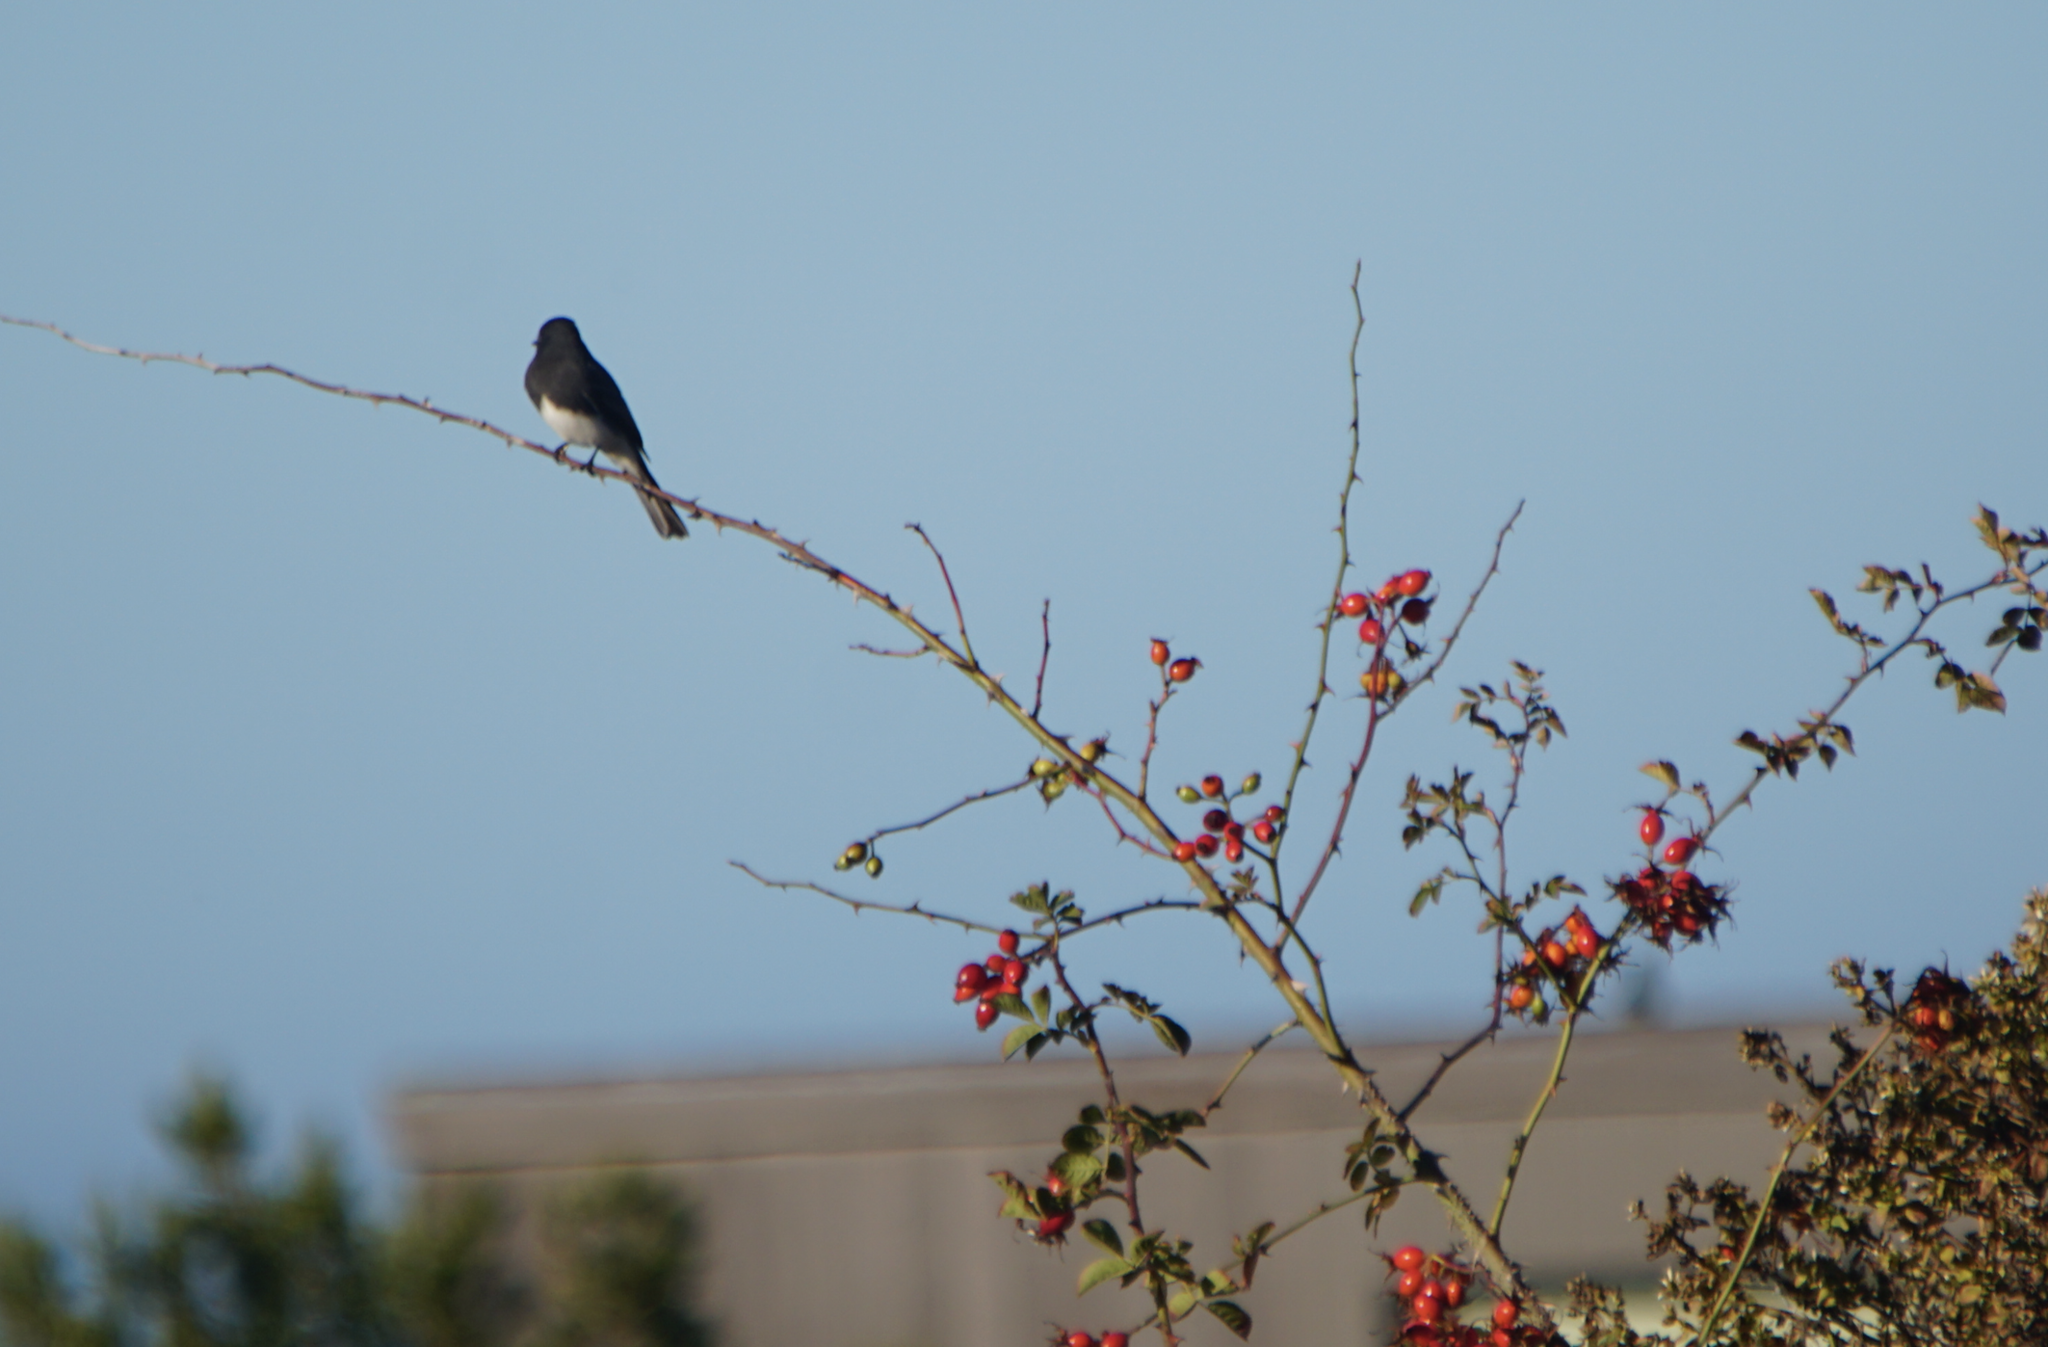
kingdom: Animalia
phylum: Chordata
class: Aves
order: Passeriformes
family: Tyrannidae
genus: Sayornis
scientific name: Sayornis nigricans
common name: Black phoebe
